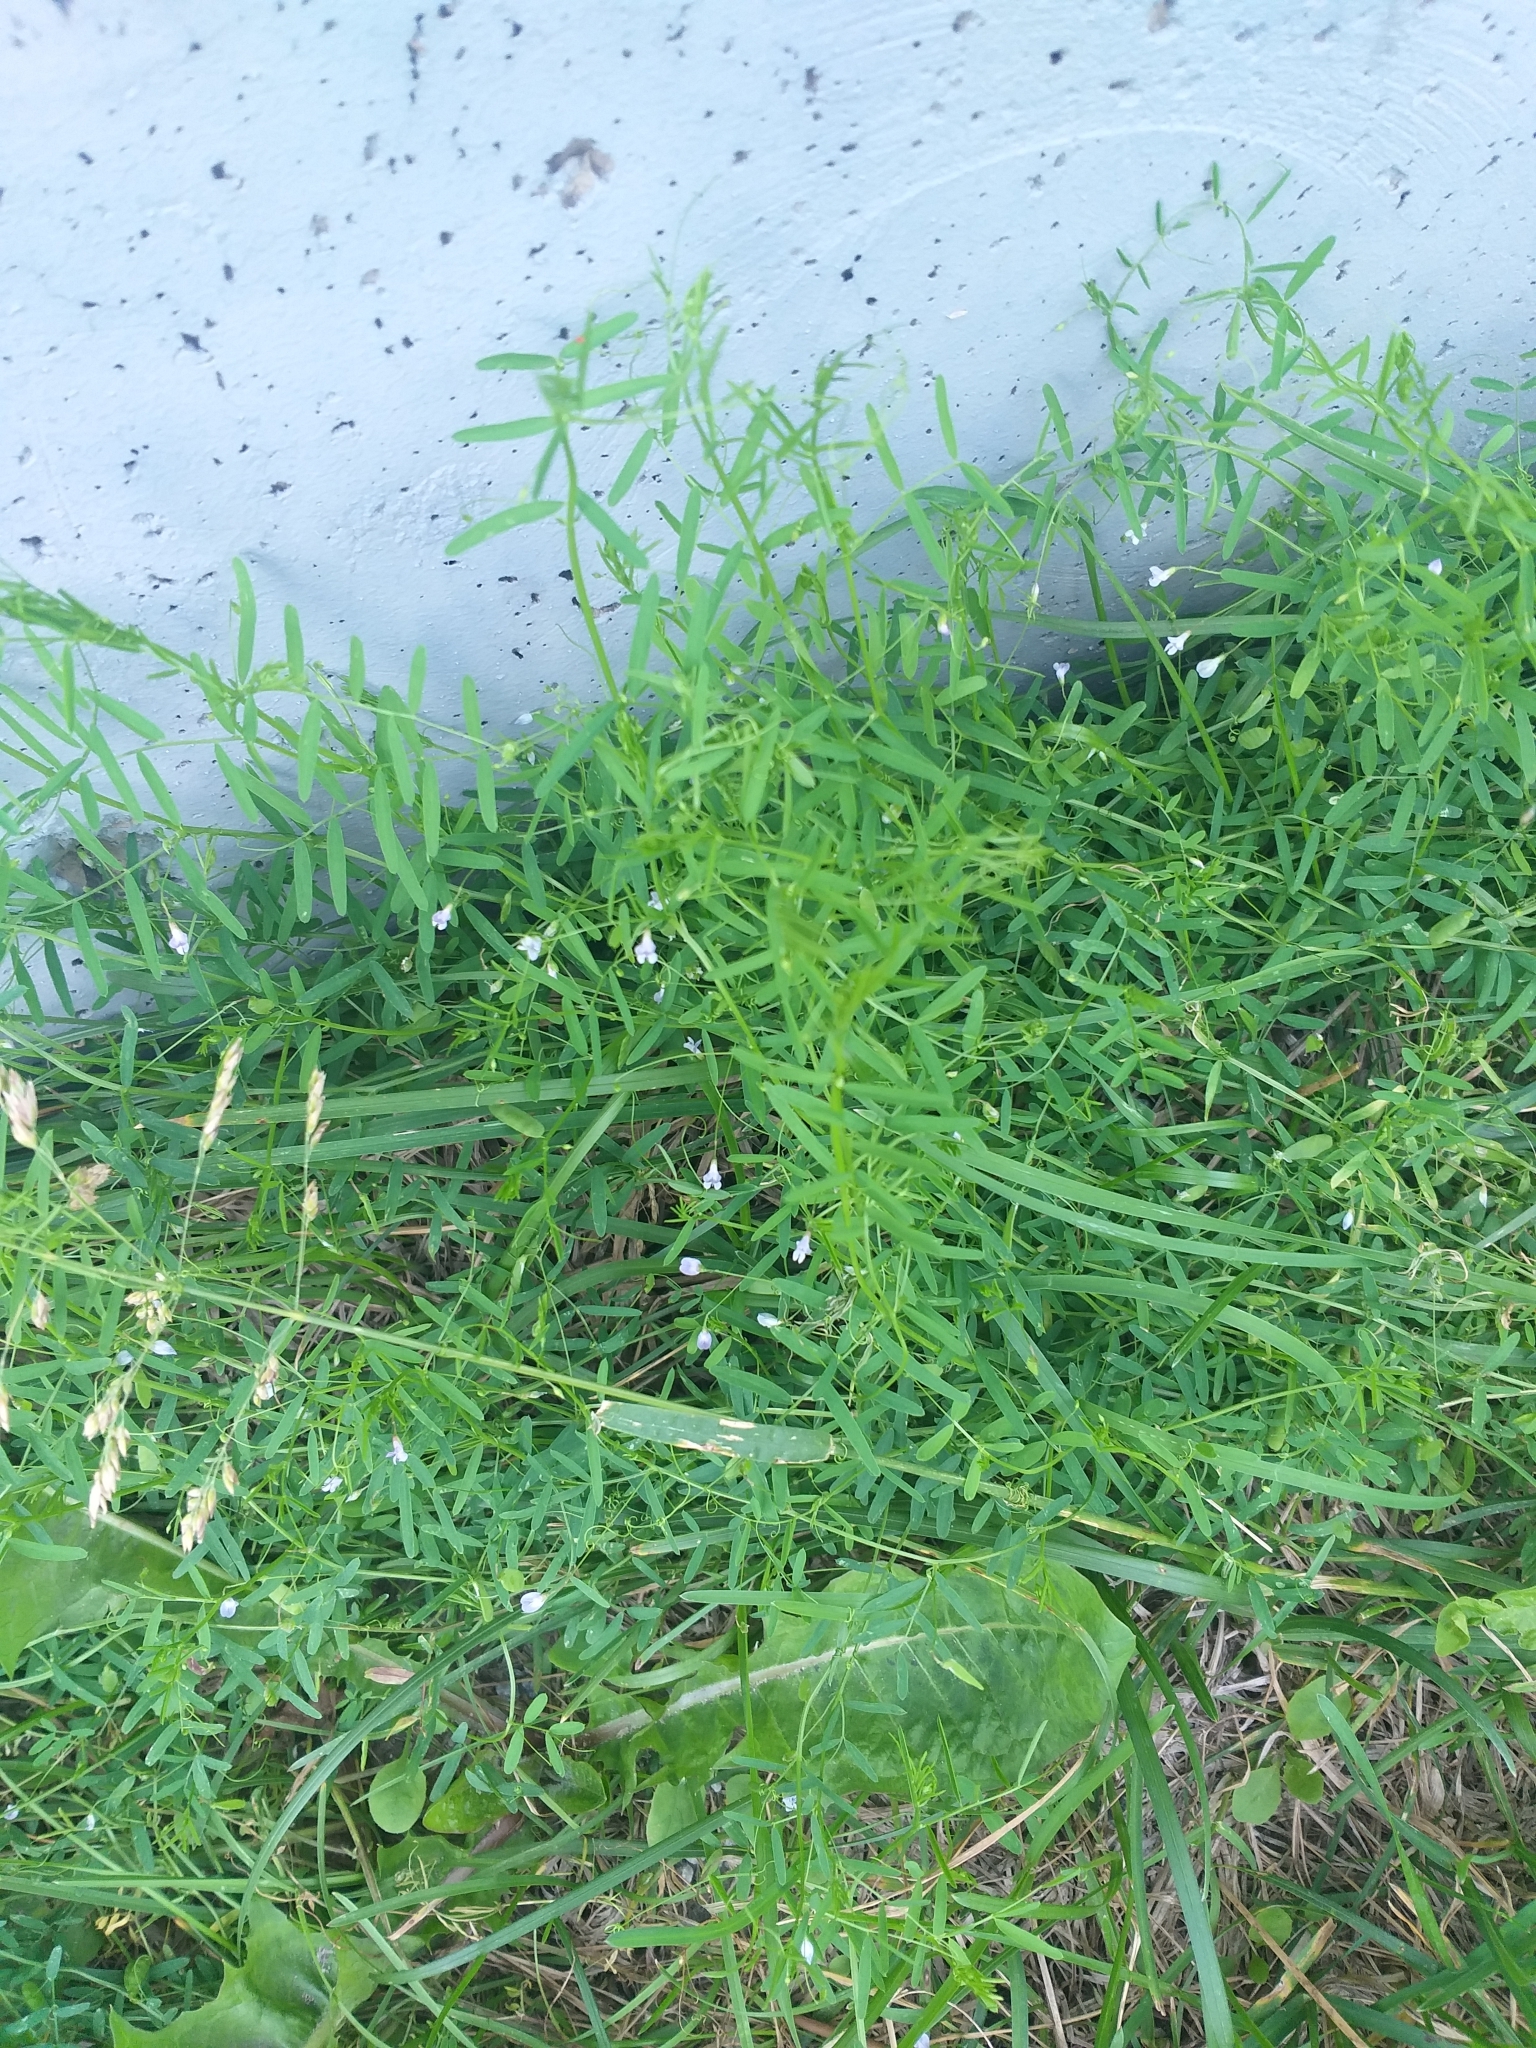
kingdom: Plantae
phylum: Tracheophyta
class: Magnoliopsida
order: Fabales
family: Fabaceae
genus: Vicia
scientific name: Vicia tetrasperma
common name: Smooth tare
